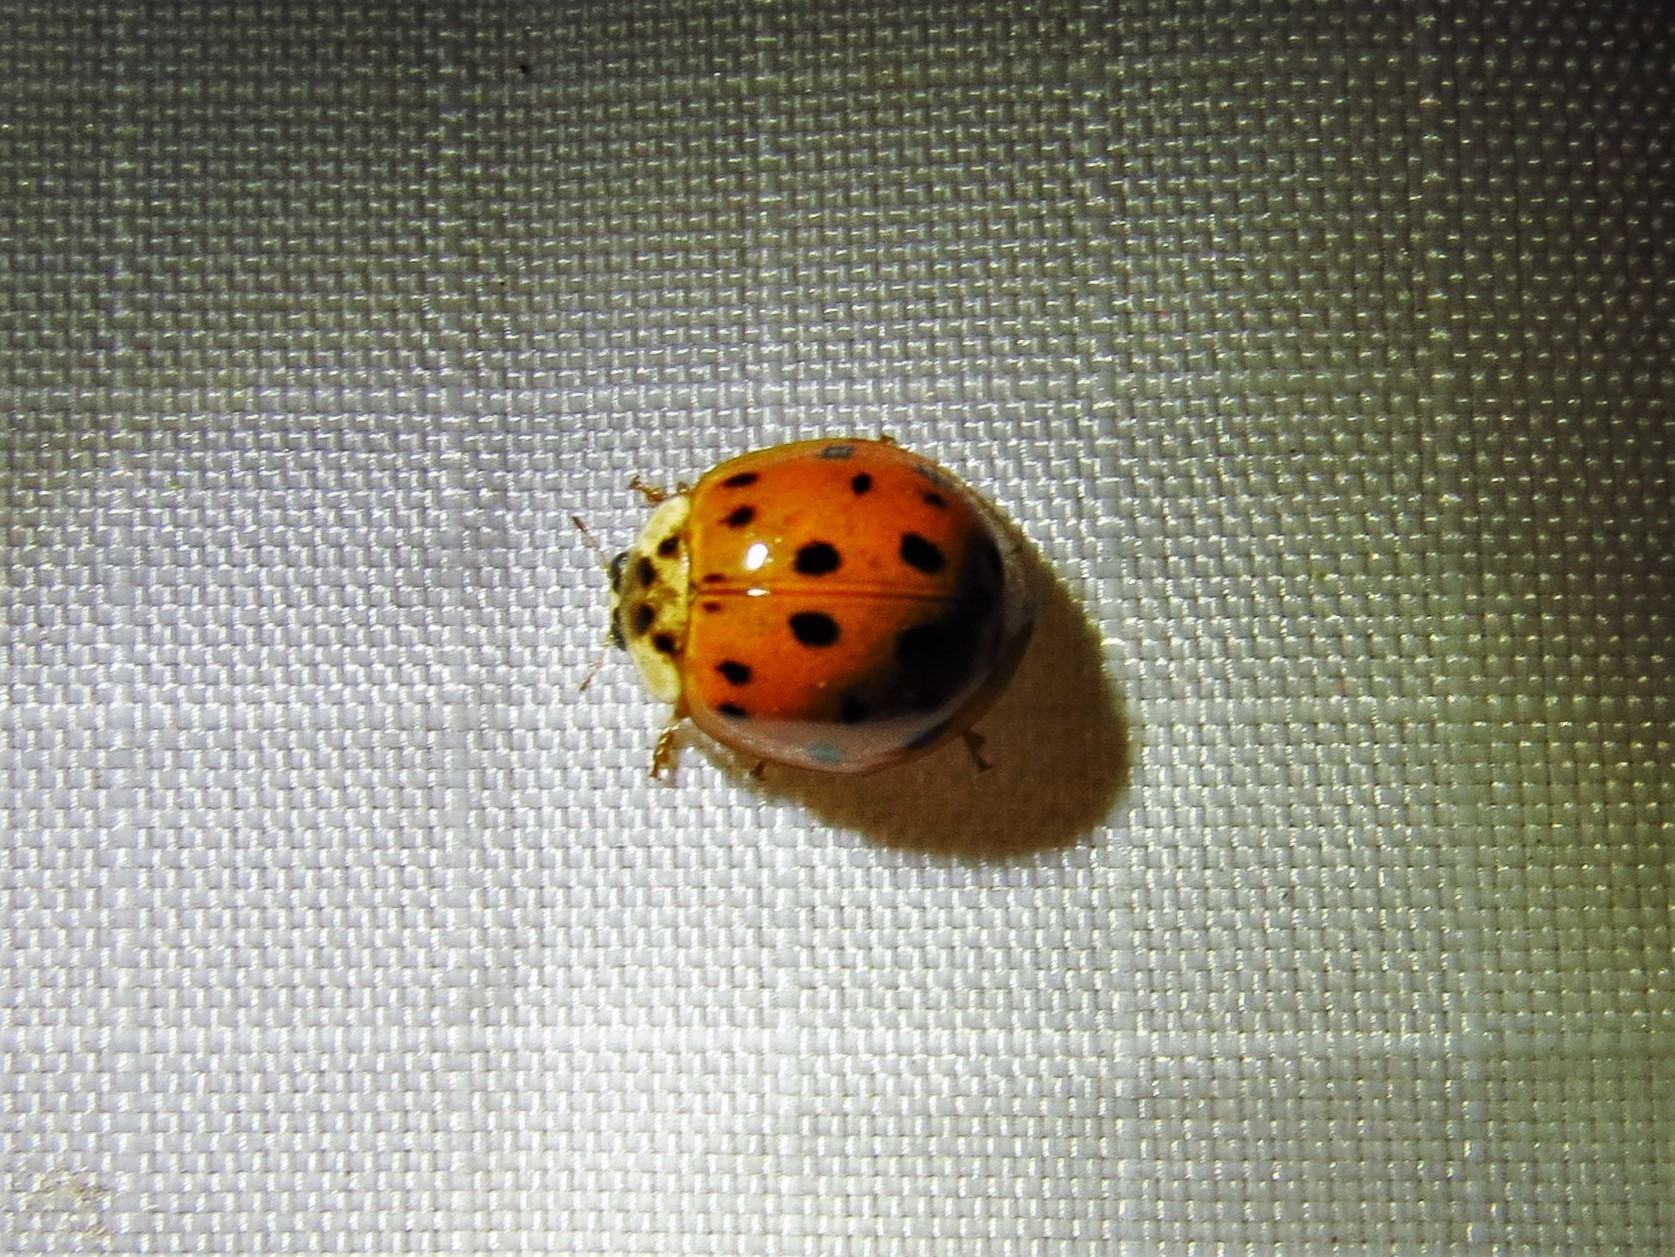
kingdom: Animalia
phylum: Arthropoda
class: Insecta
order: Coleoptera
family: Coccinellidae
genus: Harmonia
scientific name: Harmonia axyridis
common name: Harlequin ladybird
